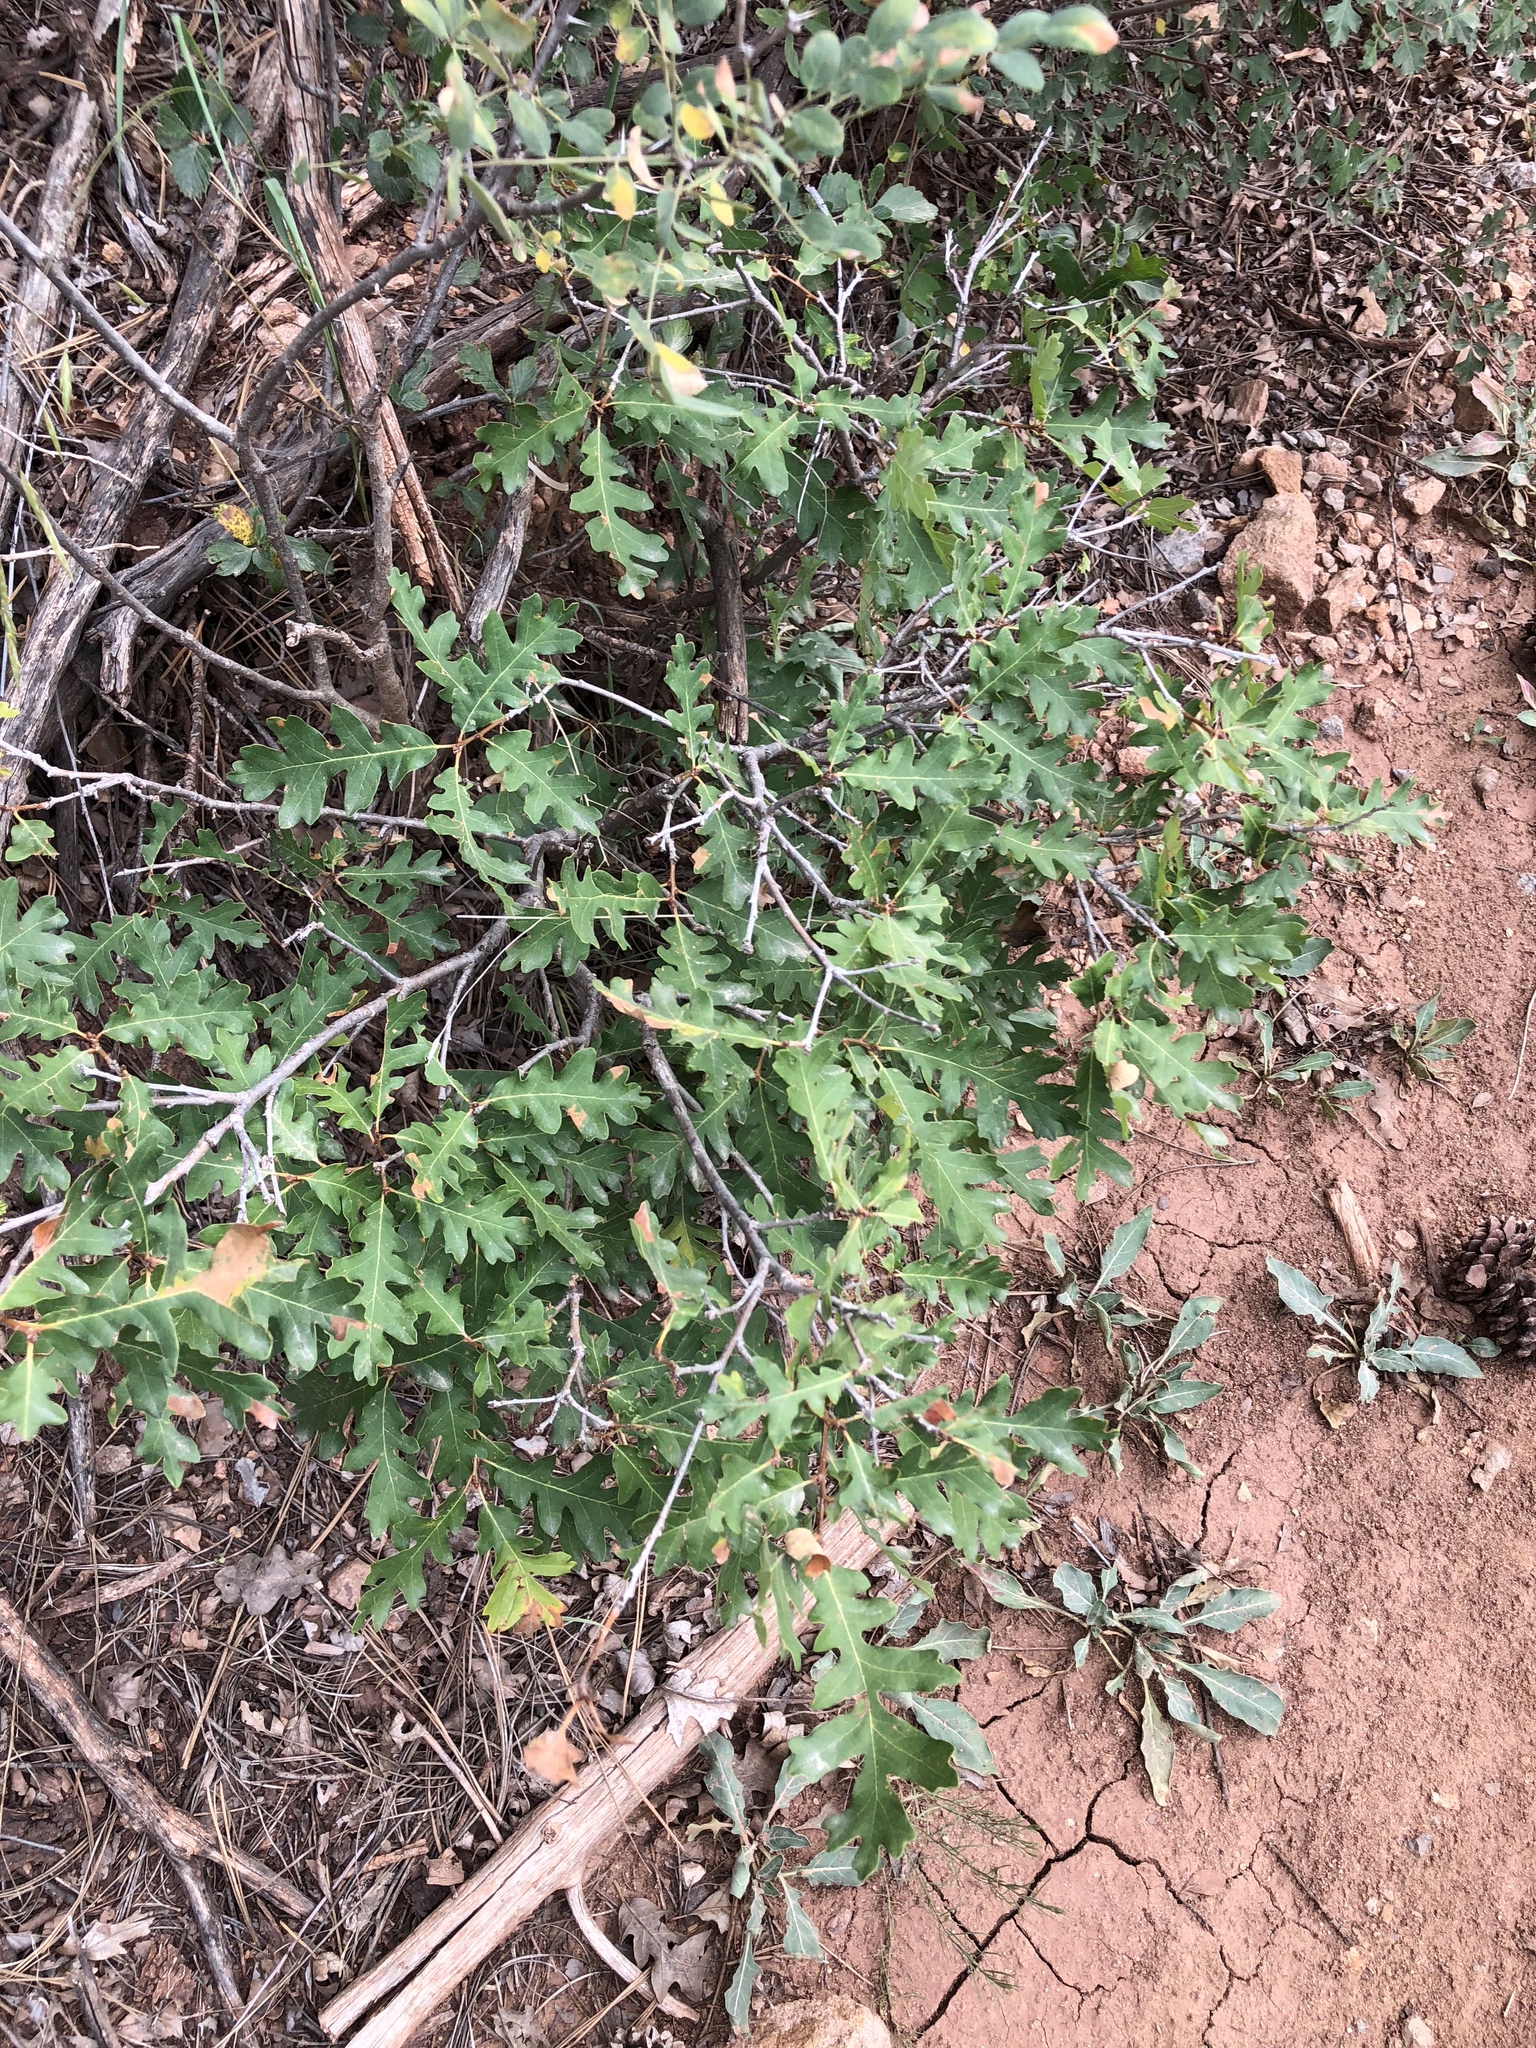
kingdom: Plantae
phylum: Tracheophyta
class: Magnoliopsida
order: Fagales
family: Fagaceae
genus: Quercus
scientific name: Quercus gambelii
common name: Gambel oak
